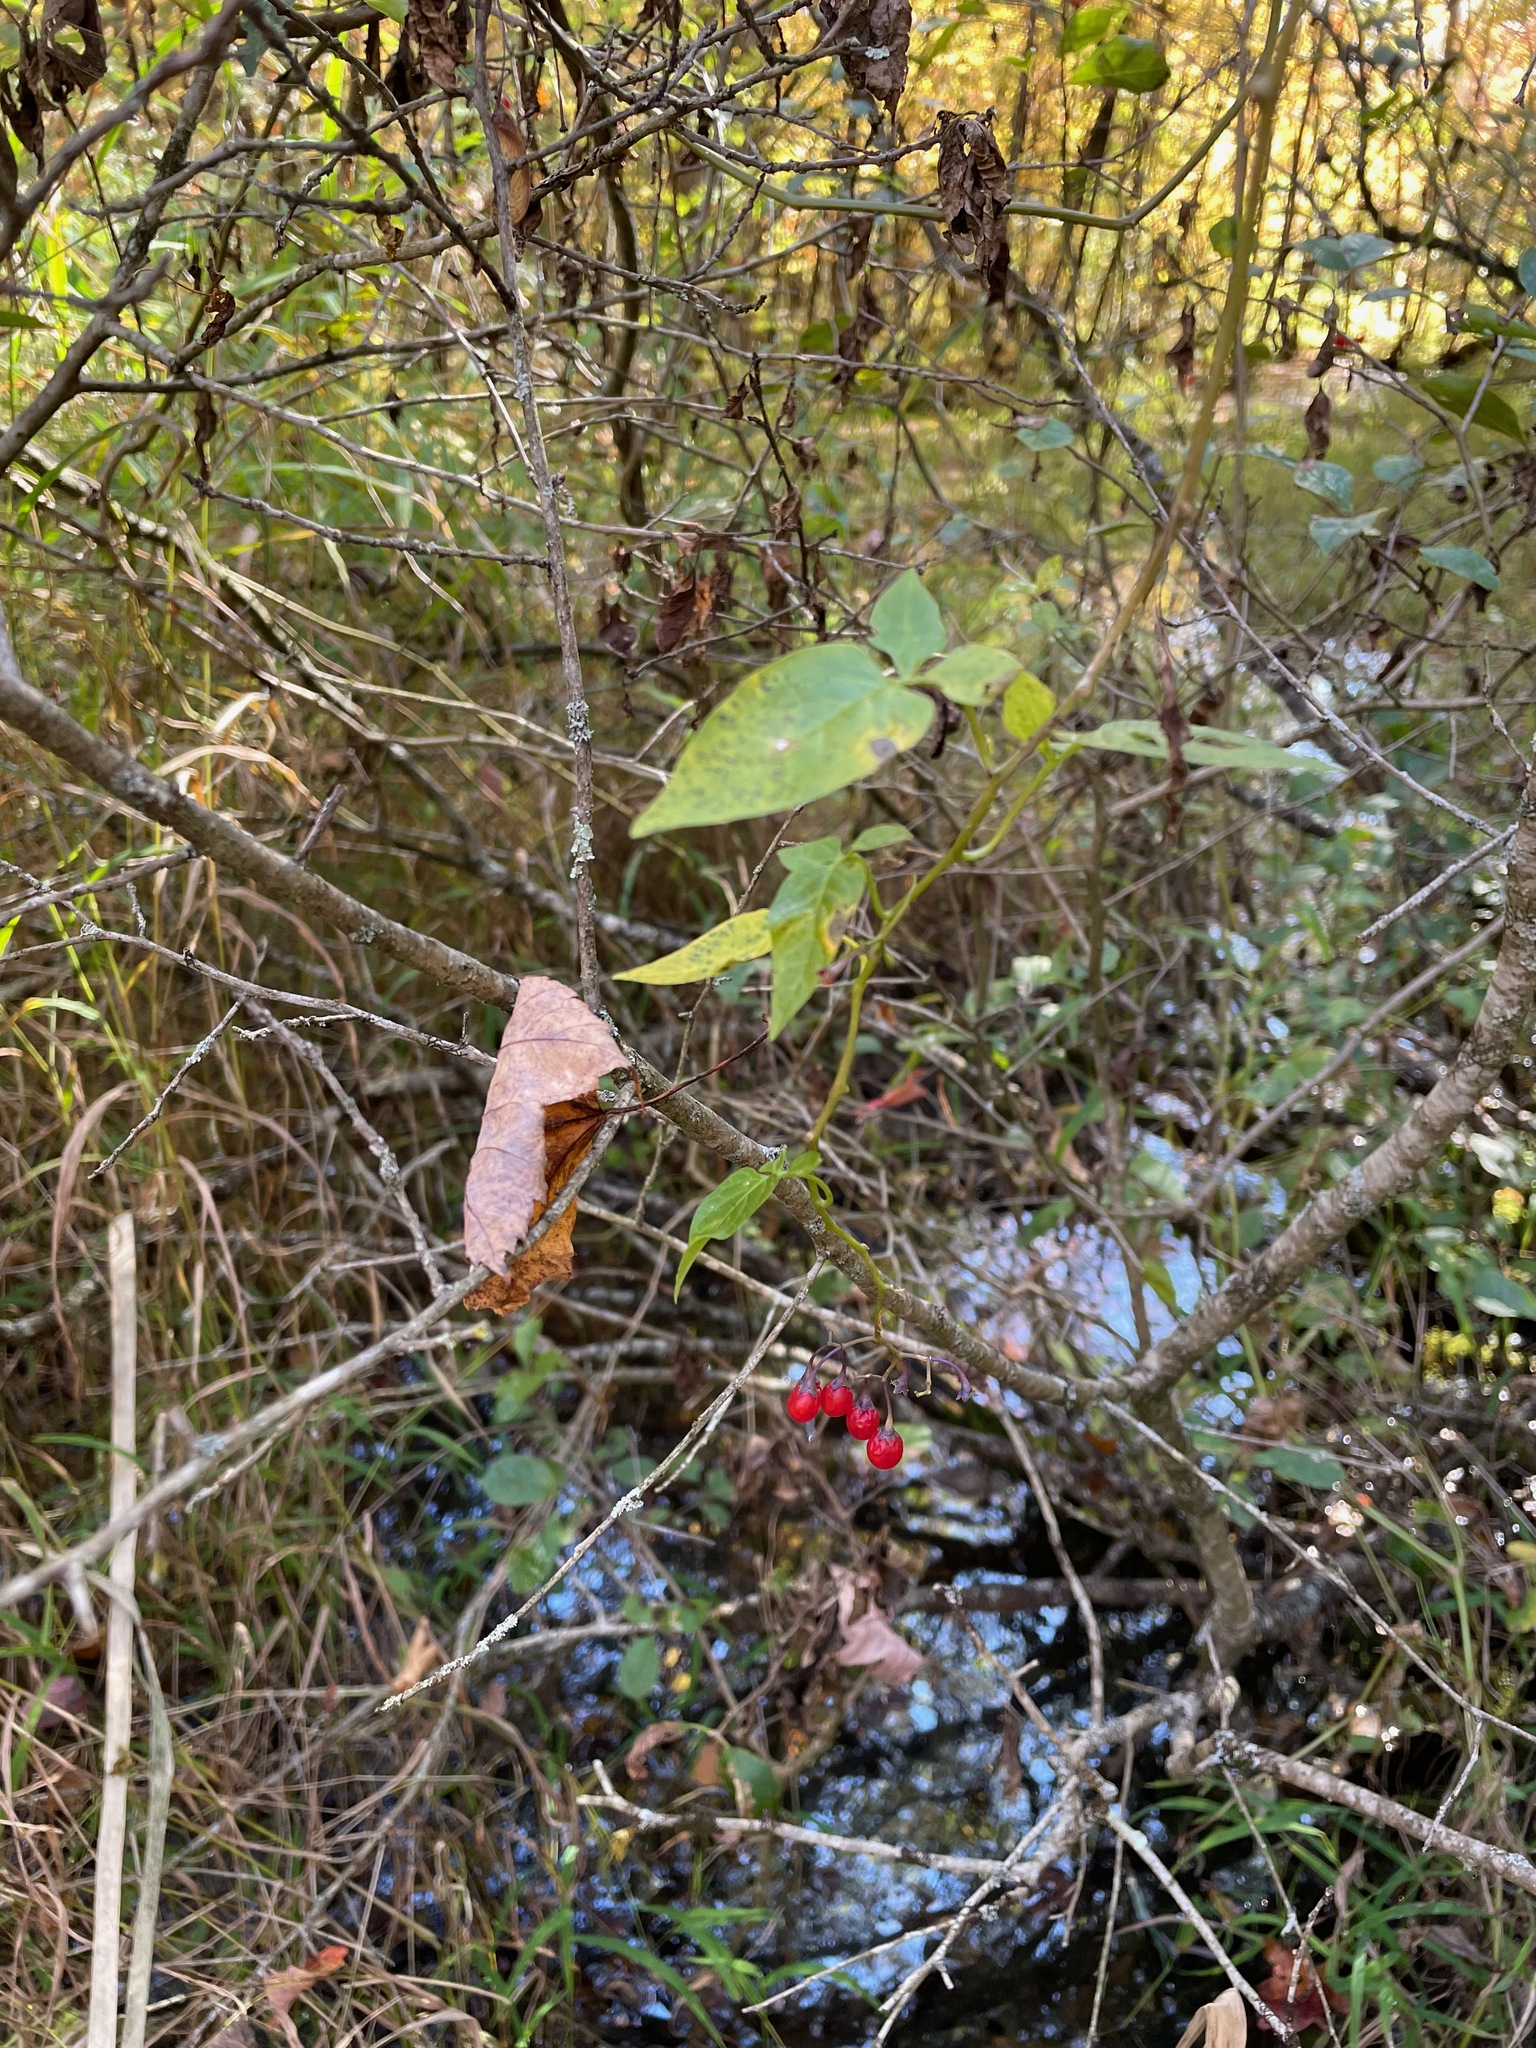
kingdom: Plantae
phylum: Tracheophyta
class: Magnoliopsida
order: Solanales
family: Solanaceae
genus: Solanum
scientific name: Solanum dulcamara
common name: Climbing nightshade
